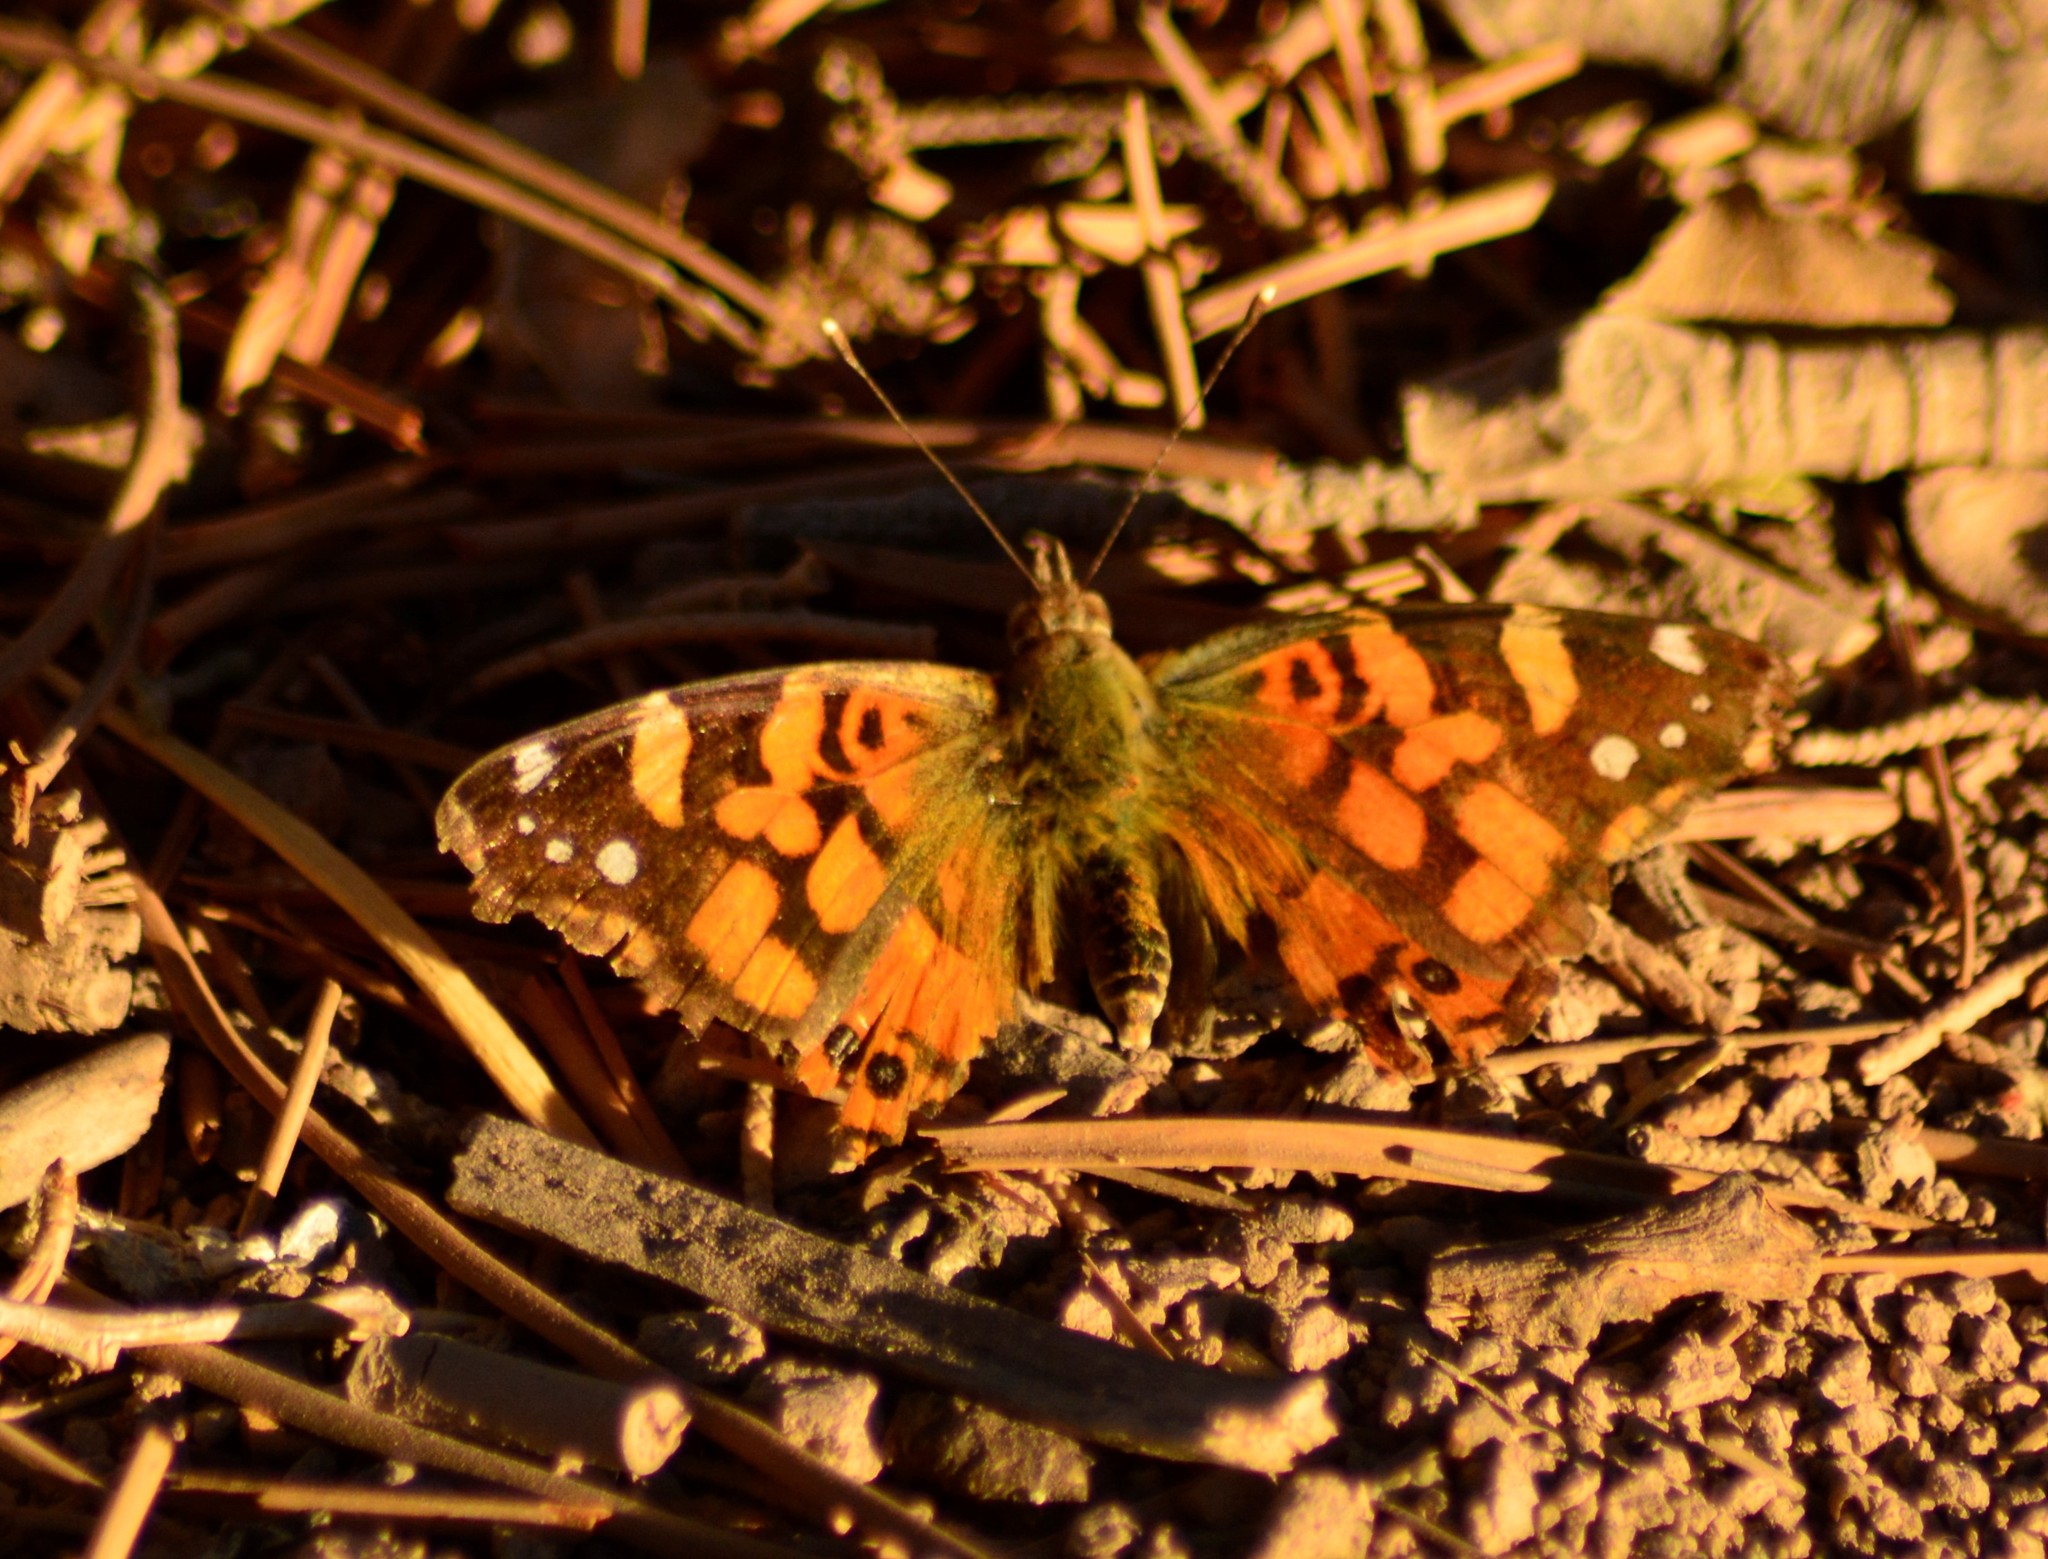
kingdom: Animalia
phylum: Arthropoda
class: Insecta
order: Lepidoptera
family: Nymphalidae
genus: Vanessa
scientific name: Vanessa carye
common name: Subtropical lady
